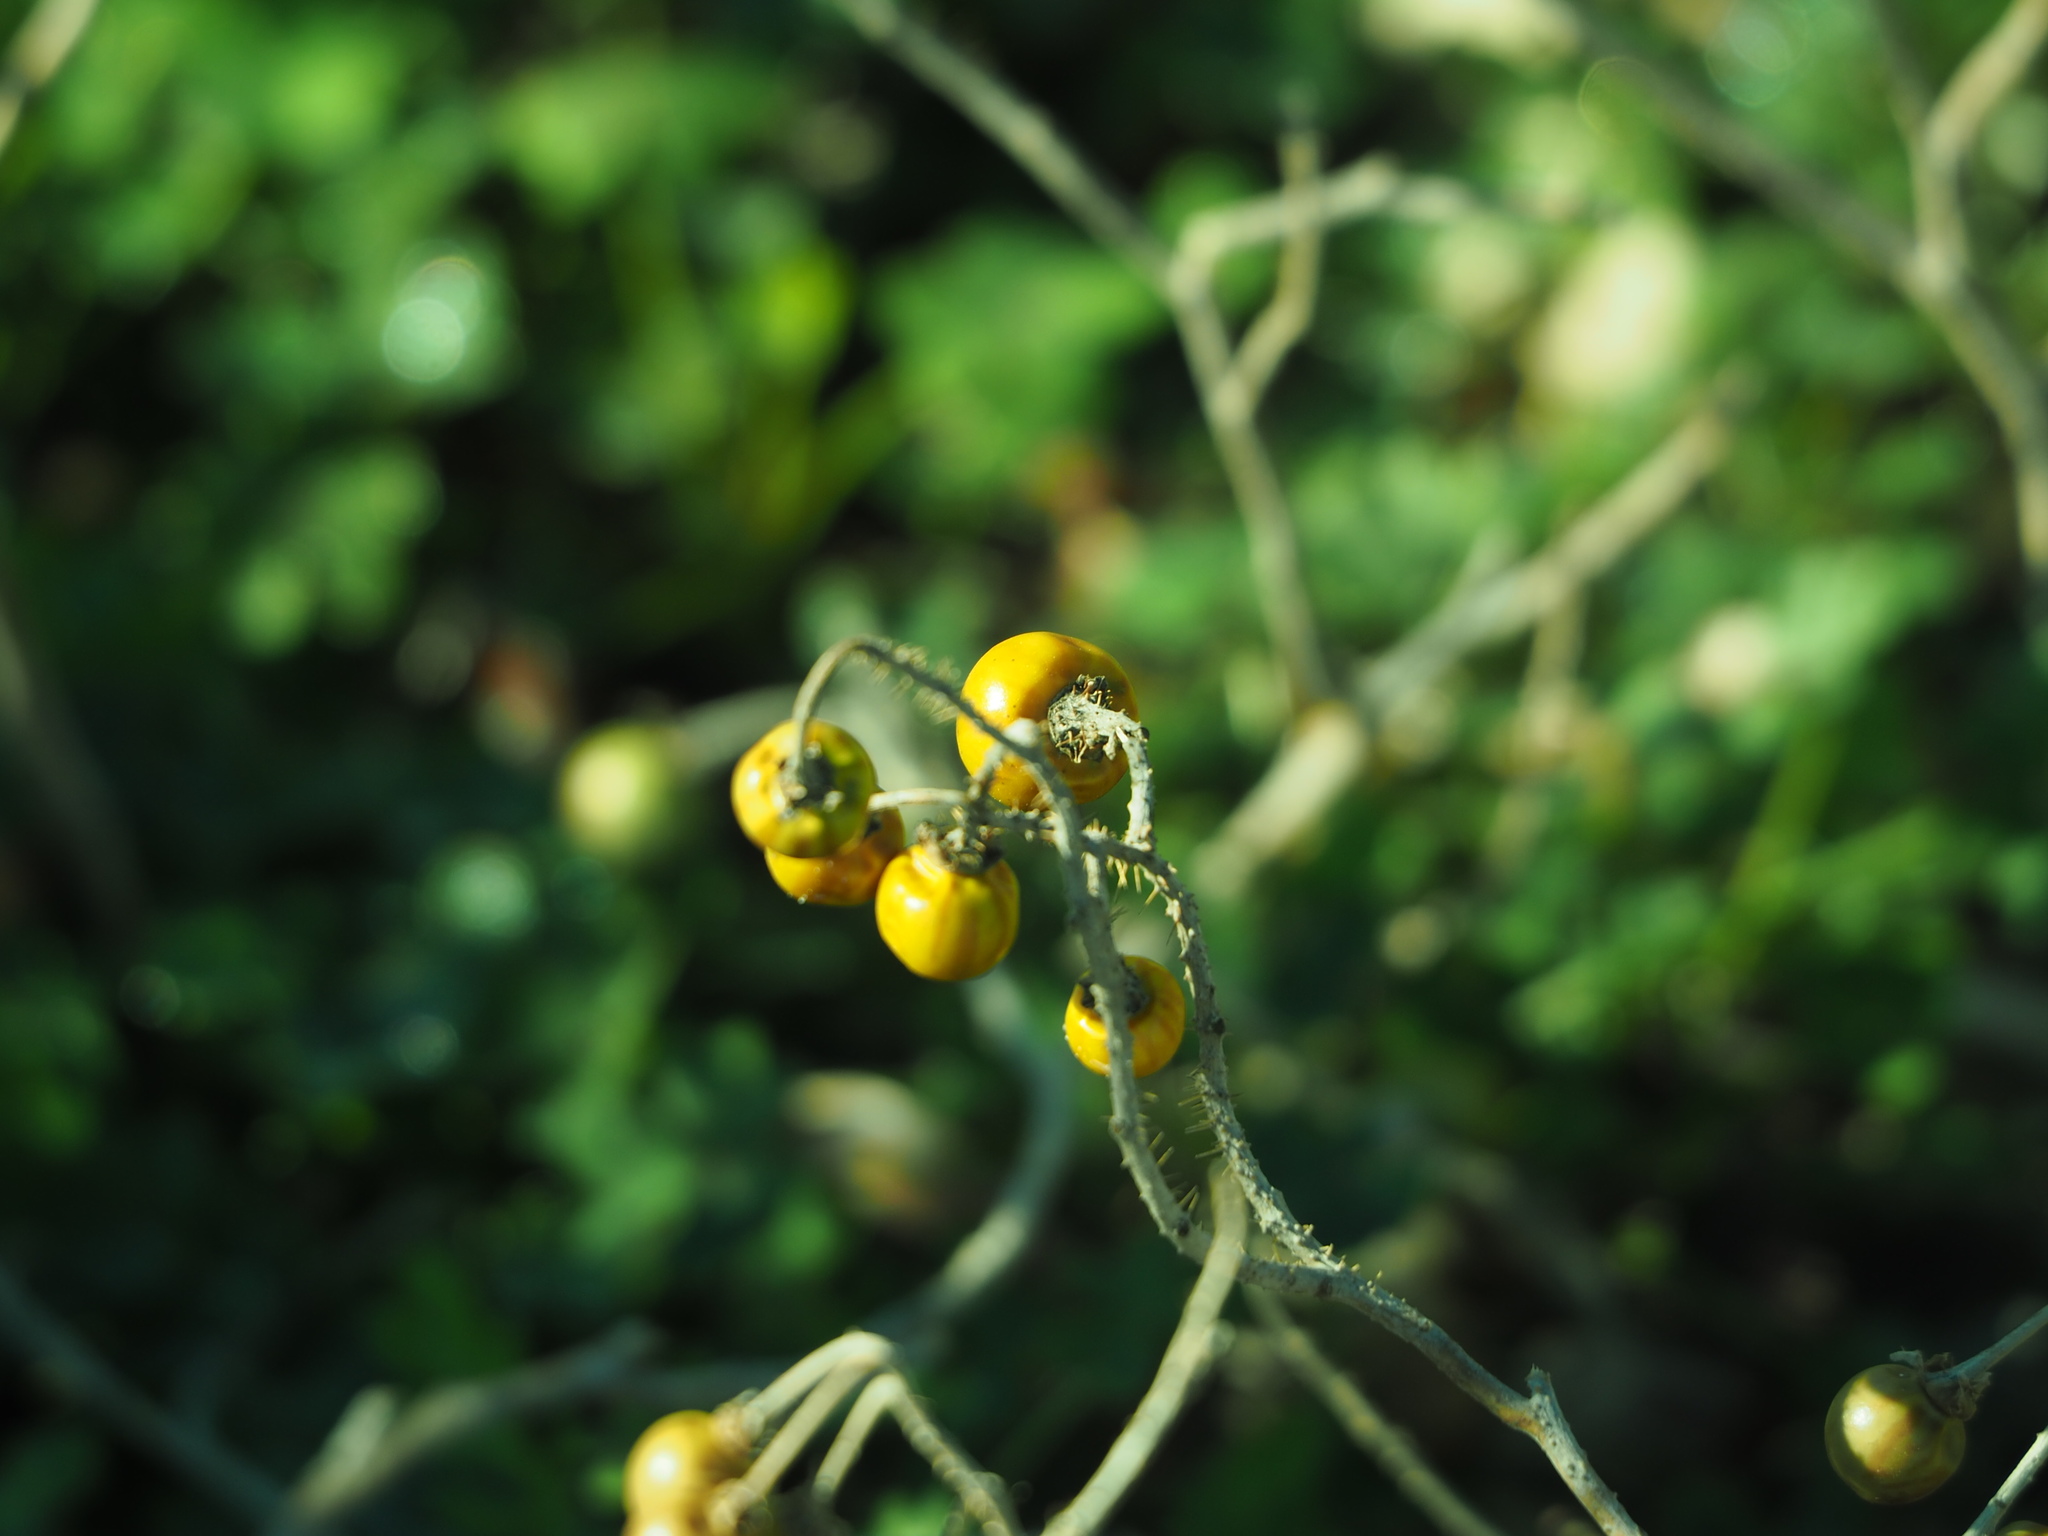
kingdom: Plantae
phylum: Tracheophyta
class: Magnoliopsida
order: Solanales
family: Solanaceae
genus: Solanum
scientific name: Solanum elaeagnifolium
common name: Silverleaf nightshade
